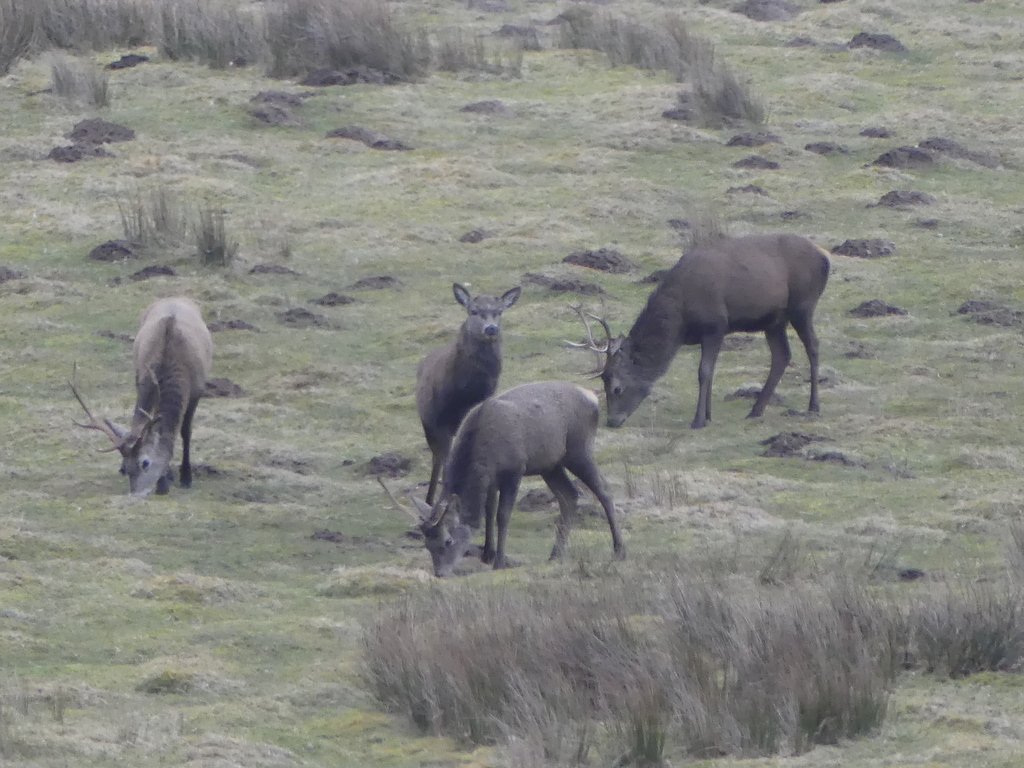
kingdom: Animalia
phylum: Chordata
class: Mammalia
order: Artiodactyla
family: Cervidae
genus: Cervus
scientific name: Cervus elaphus
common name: Red deer
